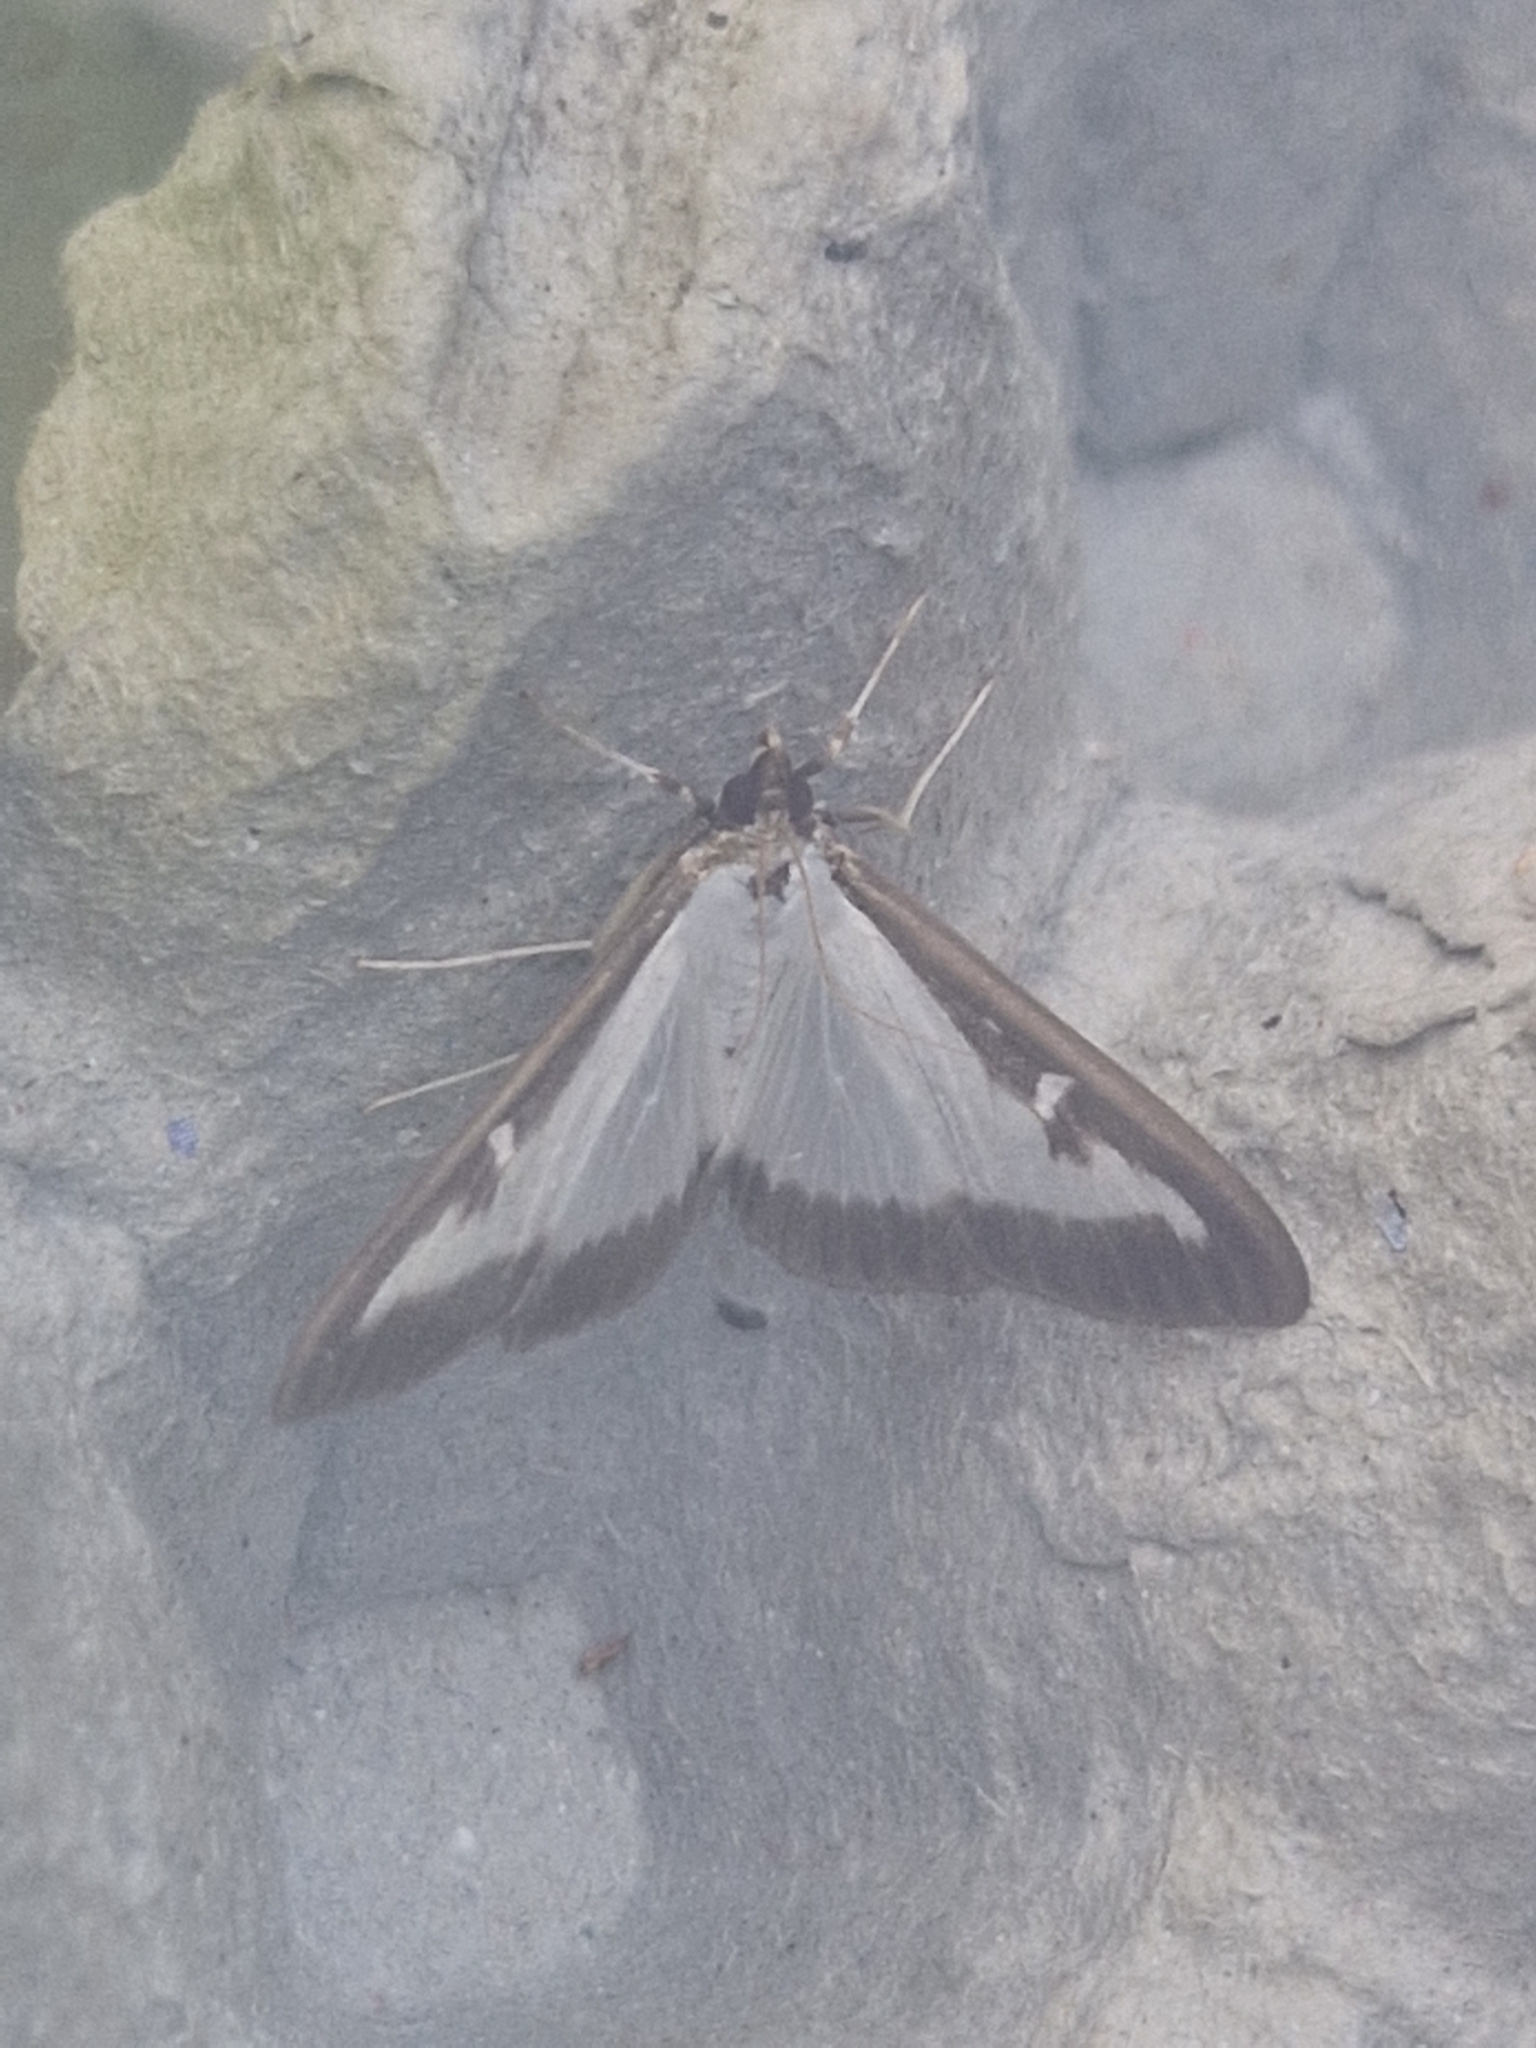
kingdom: Animalia
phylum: Arthropoda
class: Insecta
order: Lepidoptera
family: Crambidae
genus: Cydalima
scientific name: Cydalima perspectalis
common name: Box tree moth
